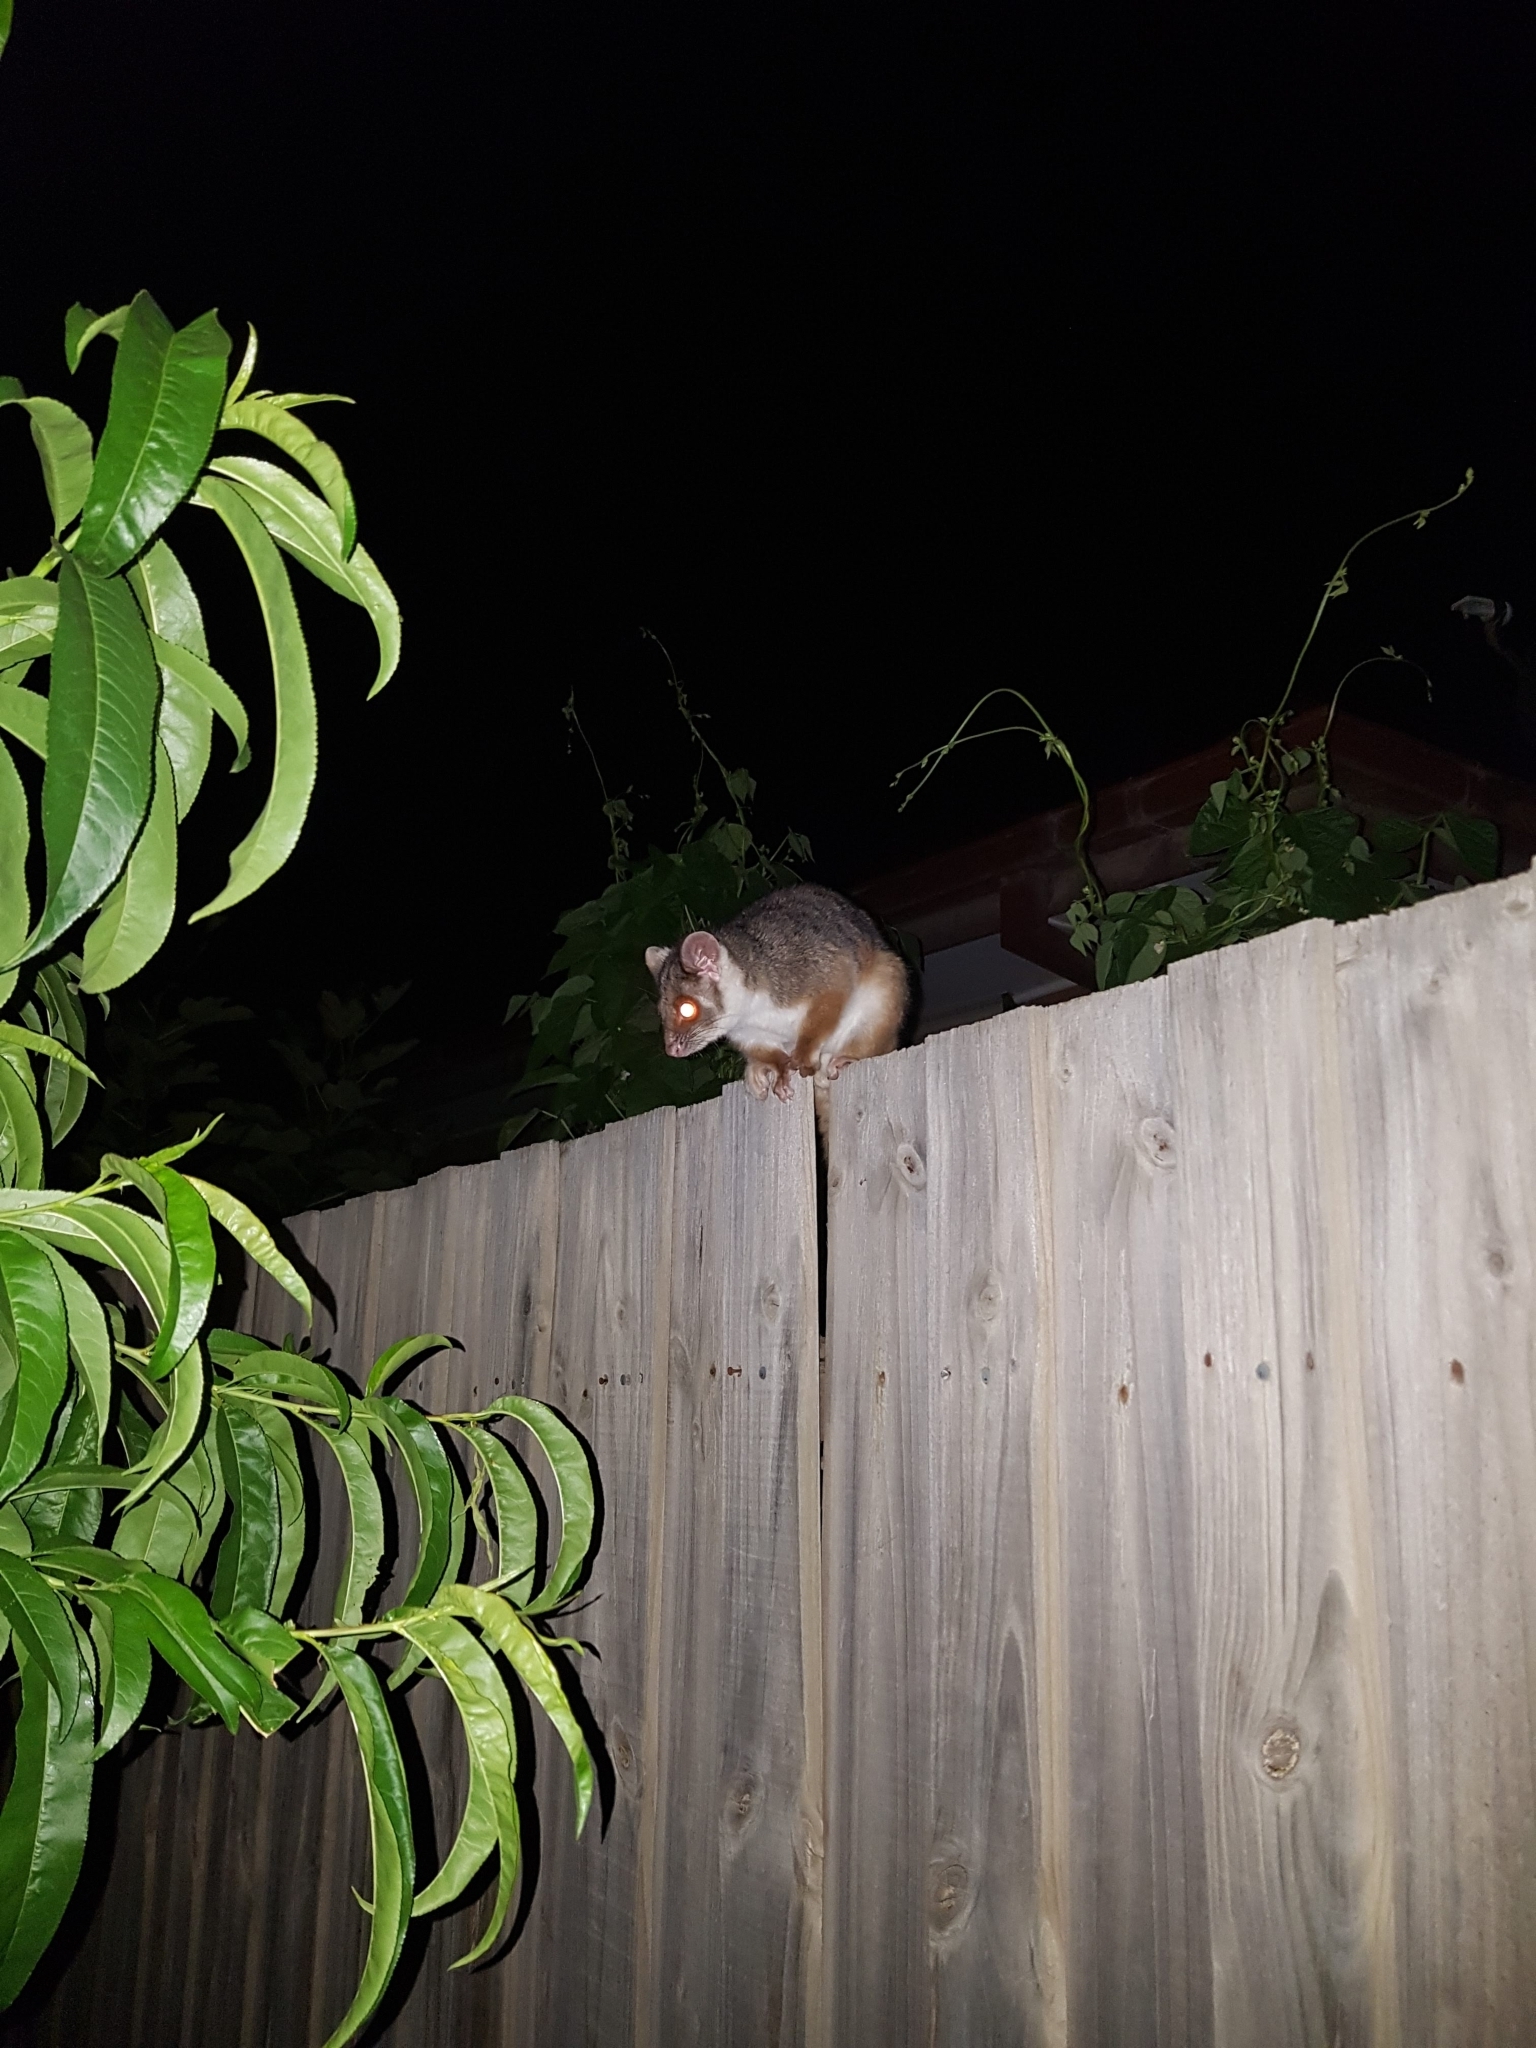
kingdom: Animalia
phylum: Chordata
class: Mammalia
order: Diprotodontia
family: Pseudocheiridae
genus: Pseudocheirus
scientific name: Pseudocheirus peregrinus
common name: Common ringtail possum
